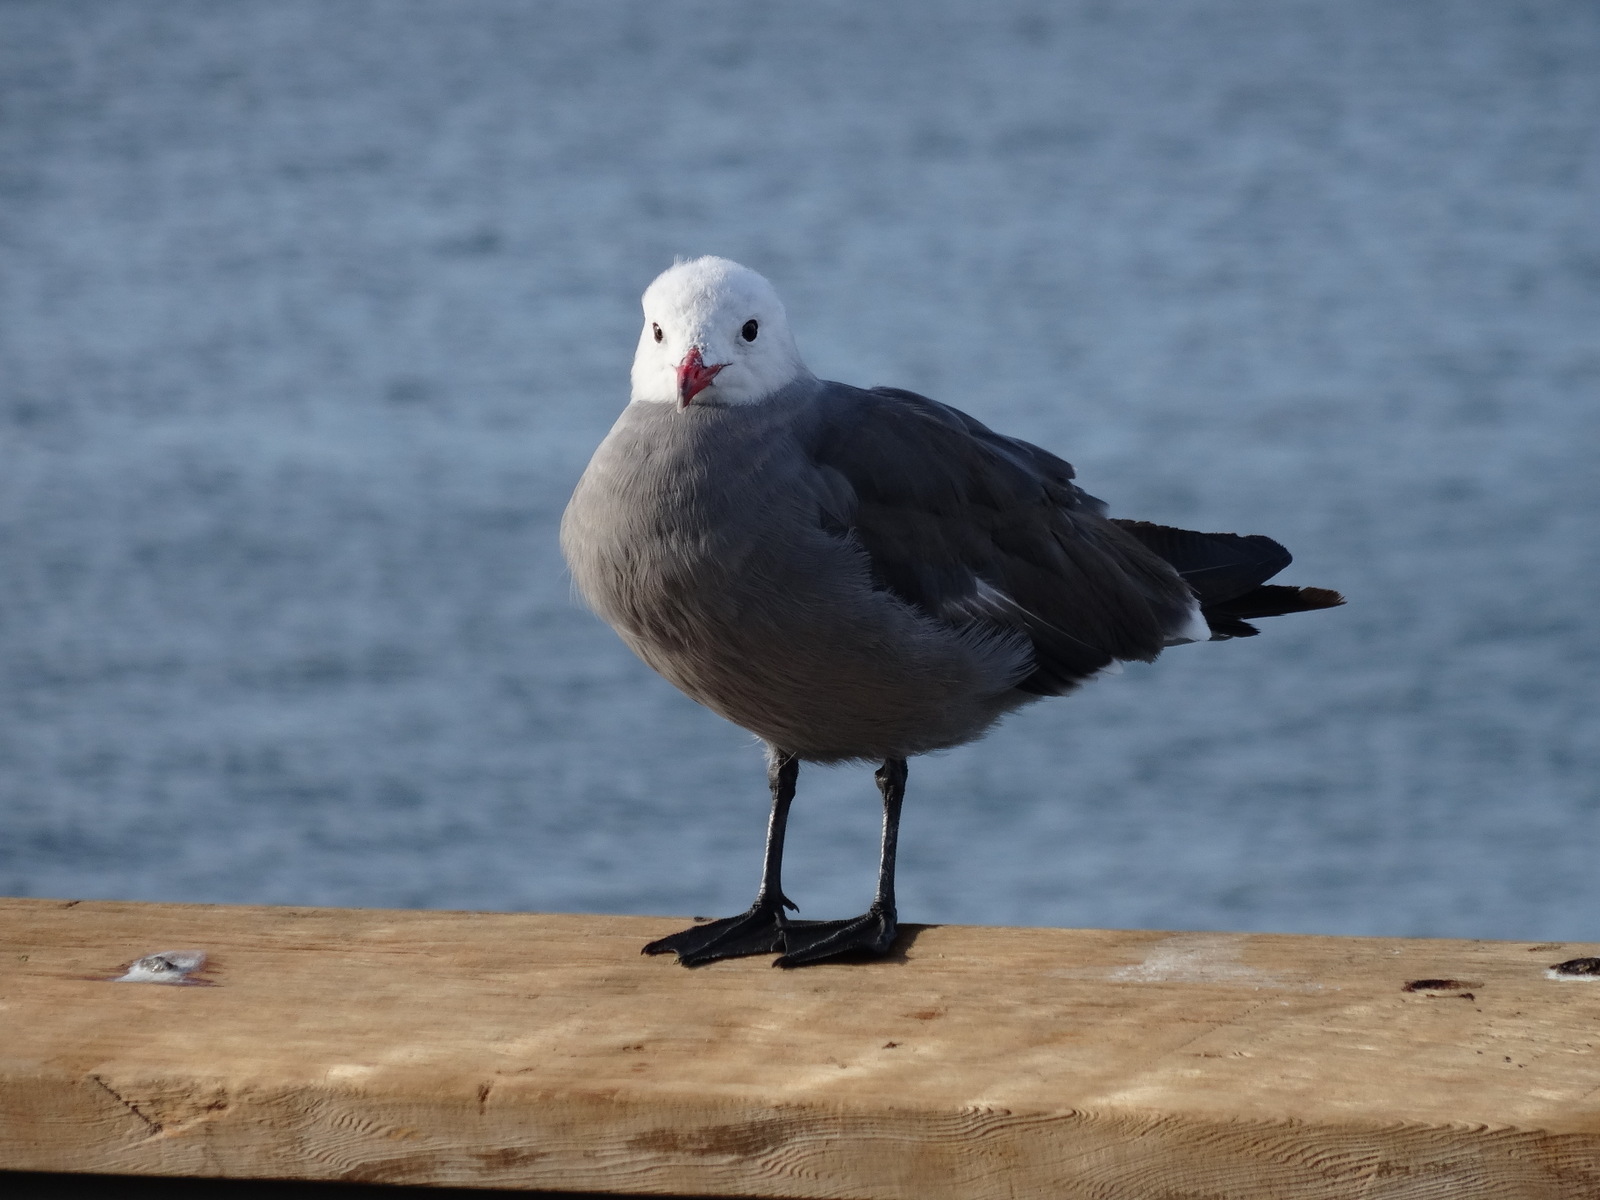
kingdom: Animalia
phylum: Chordata
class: Aves
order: Charadriiformes
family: Laridae
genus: Larus
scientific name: Larus heermanni
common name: Heermann's gull
